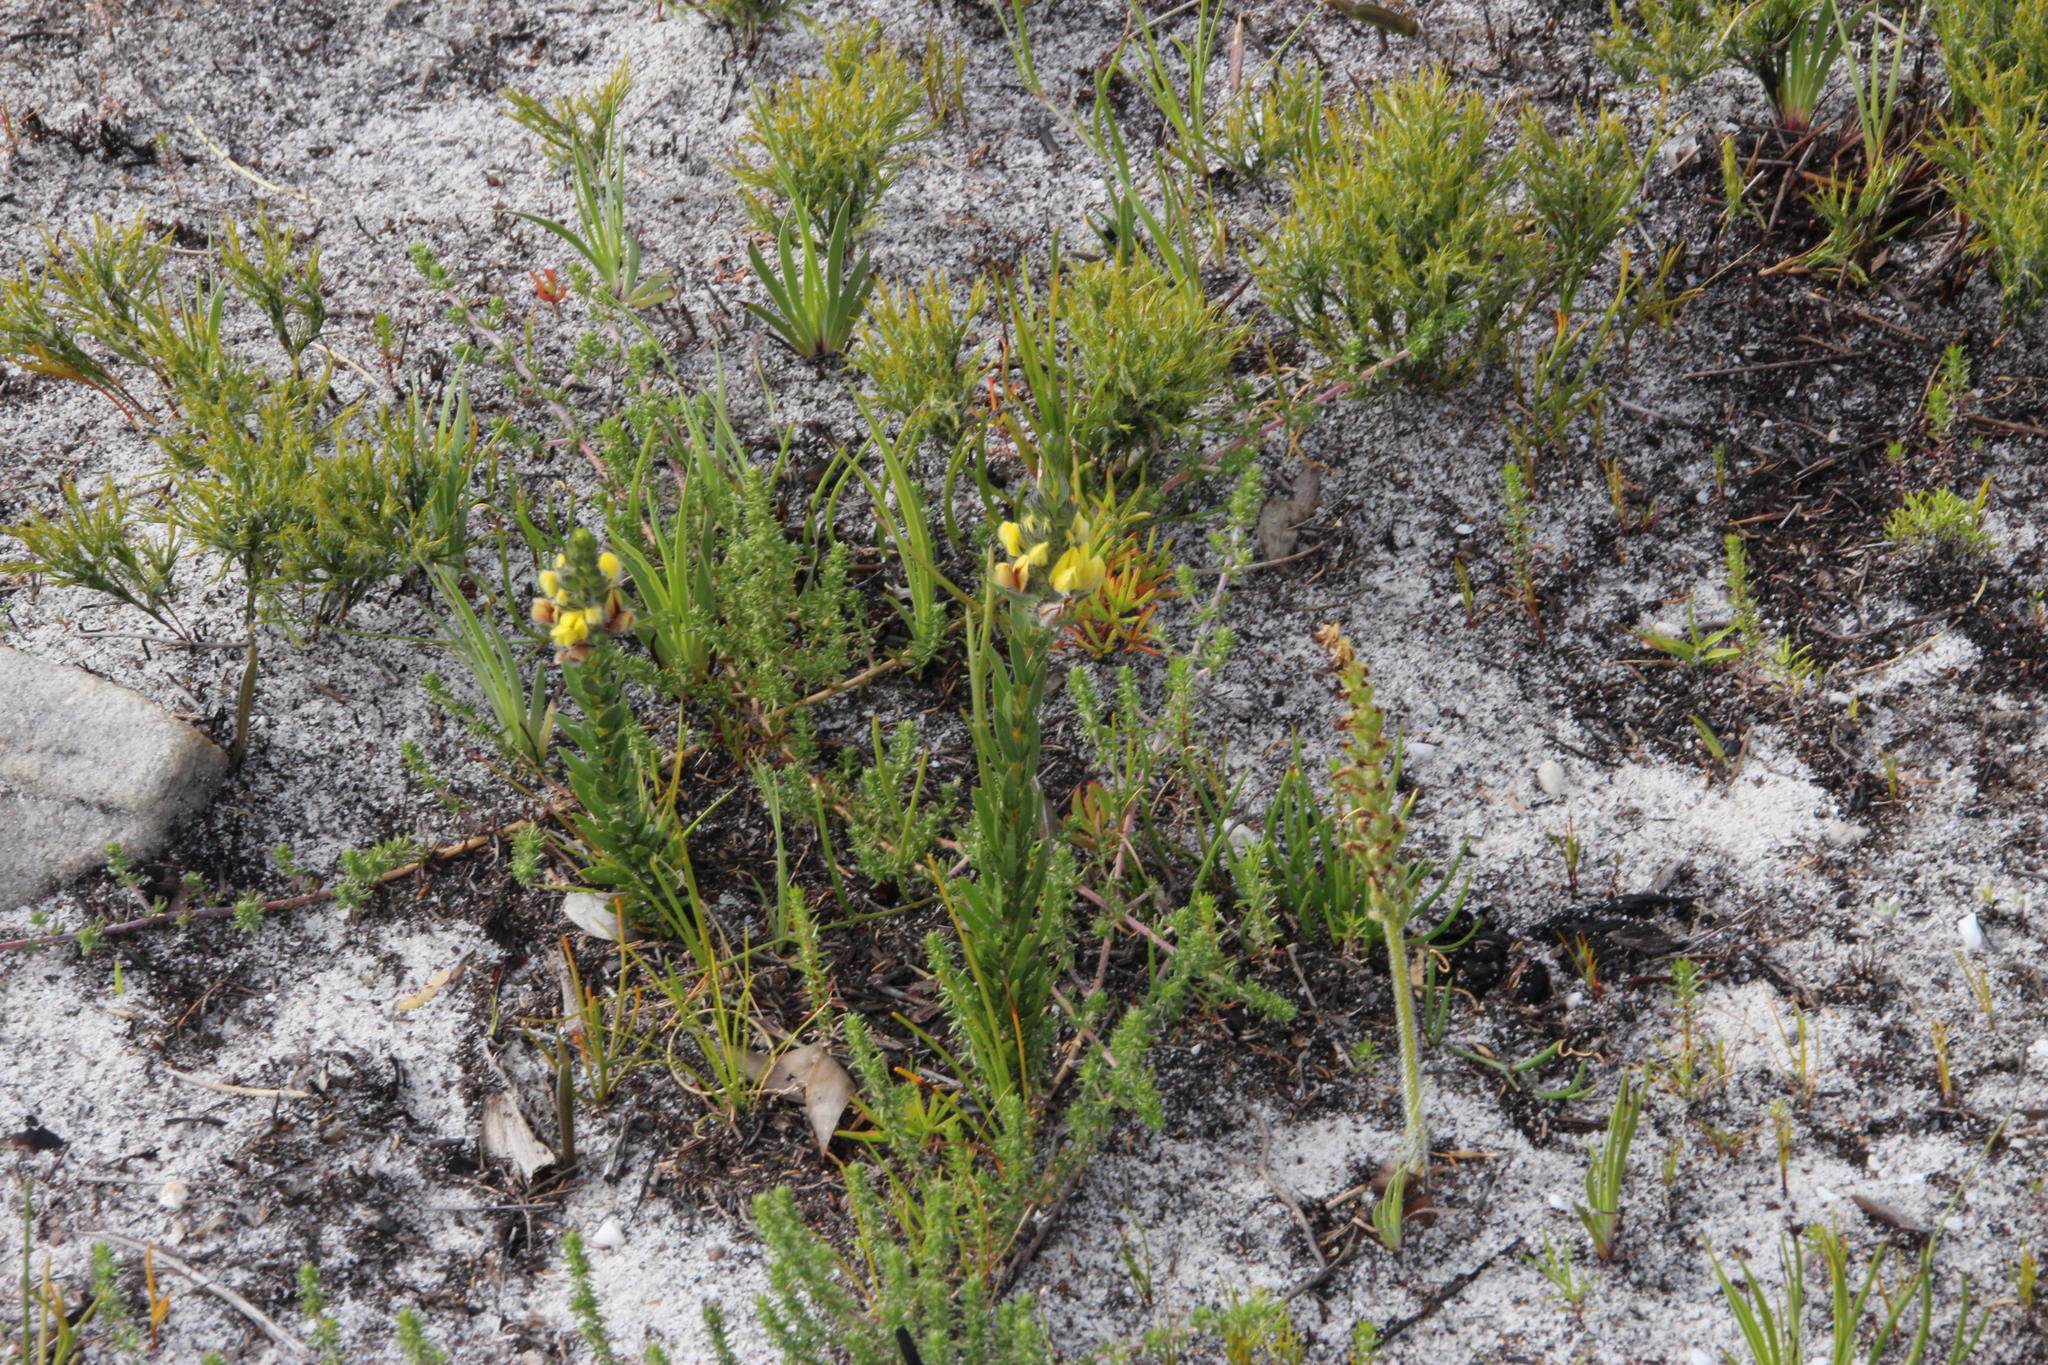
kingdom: Plantae
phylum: Tracheophyta
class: Liliopsida
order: Asparagales
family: Orchidaceae
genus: Holothrix
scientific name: Holothrix cernua
